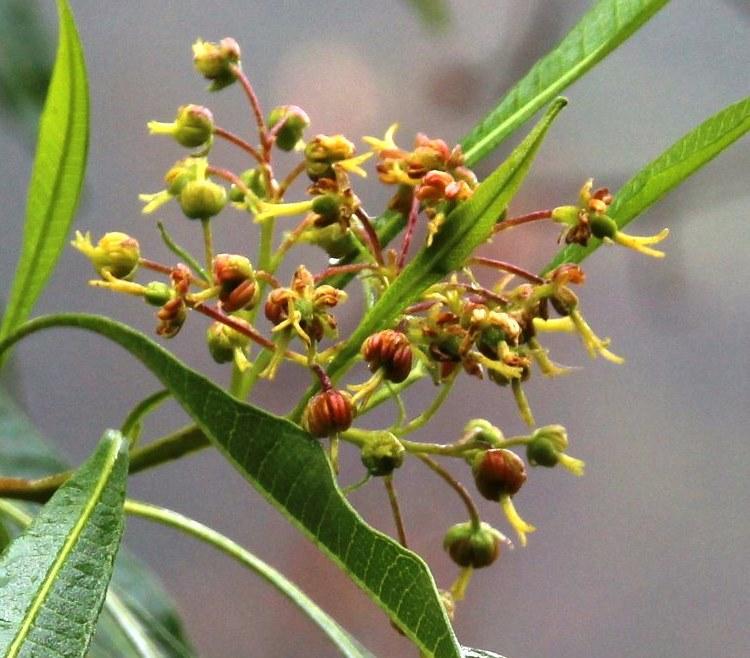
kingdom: Plantae
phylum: Tracheophyta
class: Magnoliopsida
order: Sapindales
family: Sapindaceae
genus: Dodonaea
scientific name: Dodonaea viscosa
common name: Hopbush
